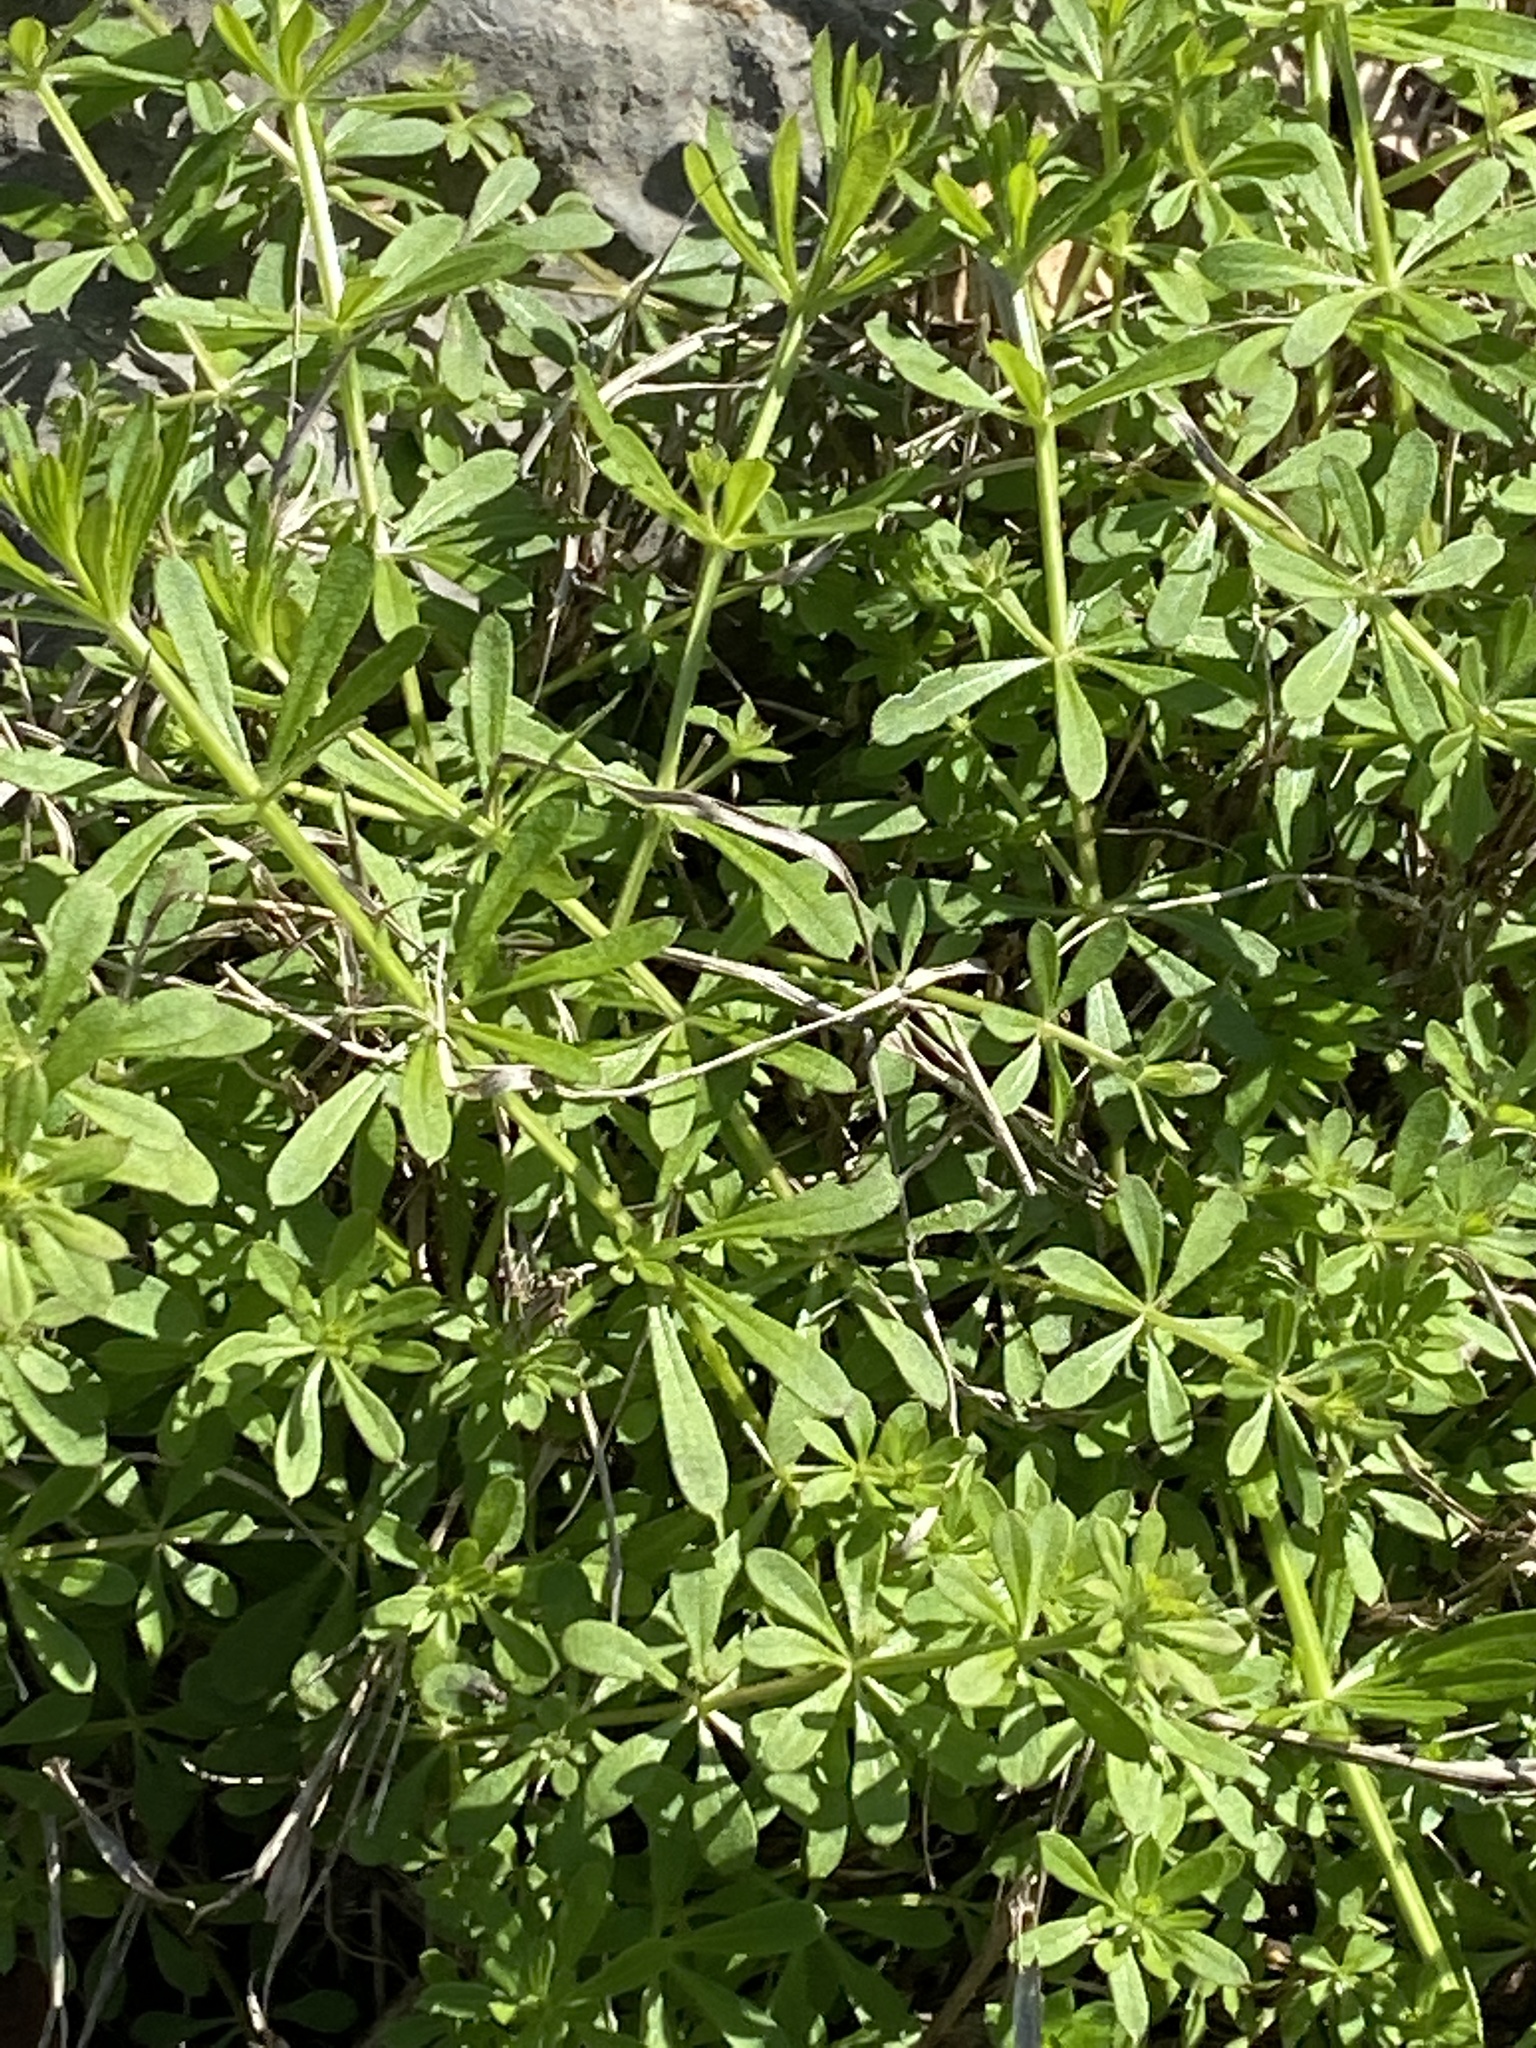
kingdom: Plantae
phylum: Tracheophyta
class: Magnoliopsida
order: Gentianales
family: Rubiaceae
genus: Galium
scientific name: Galium aparine
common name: Cleavers
